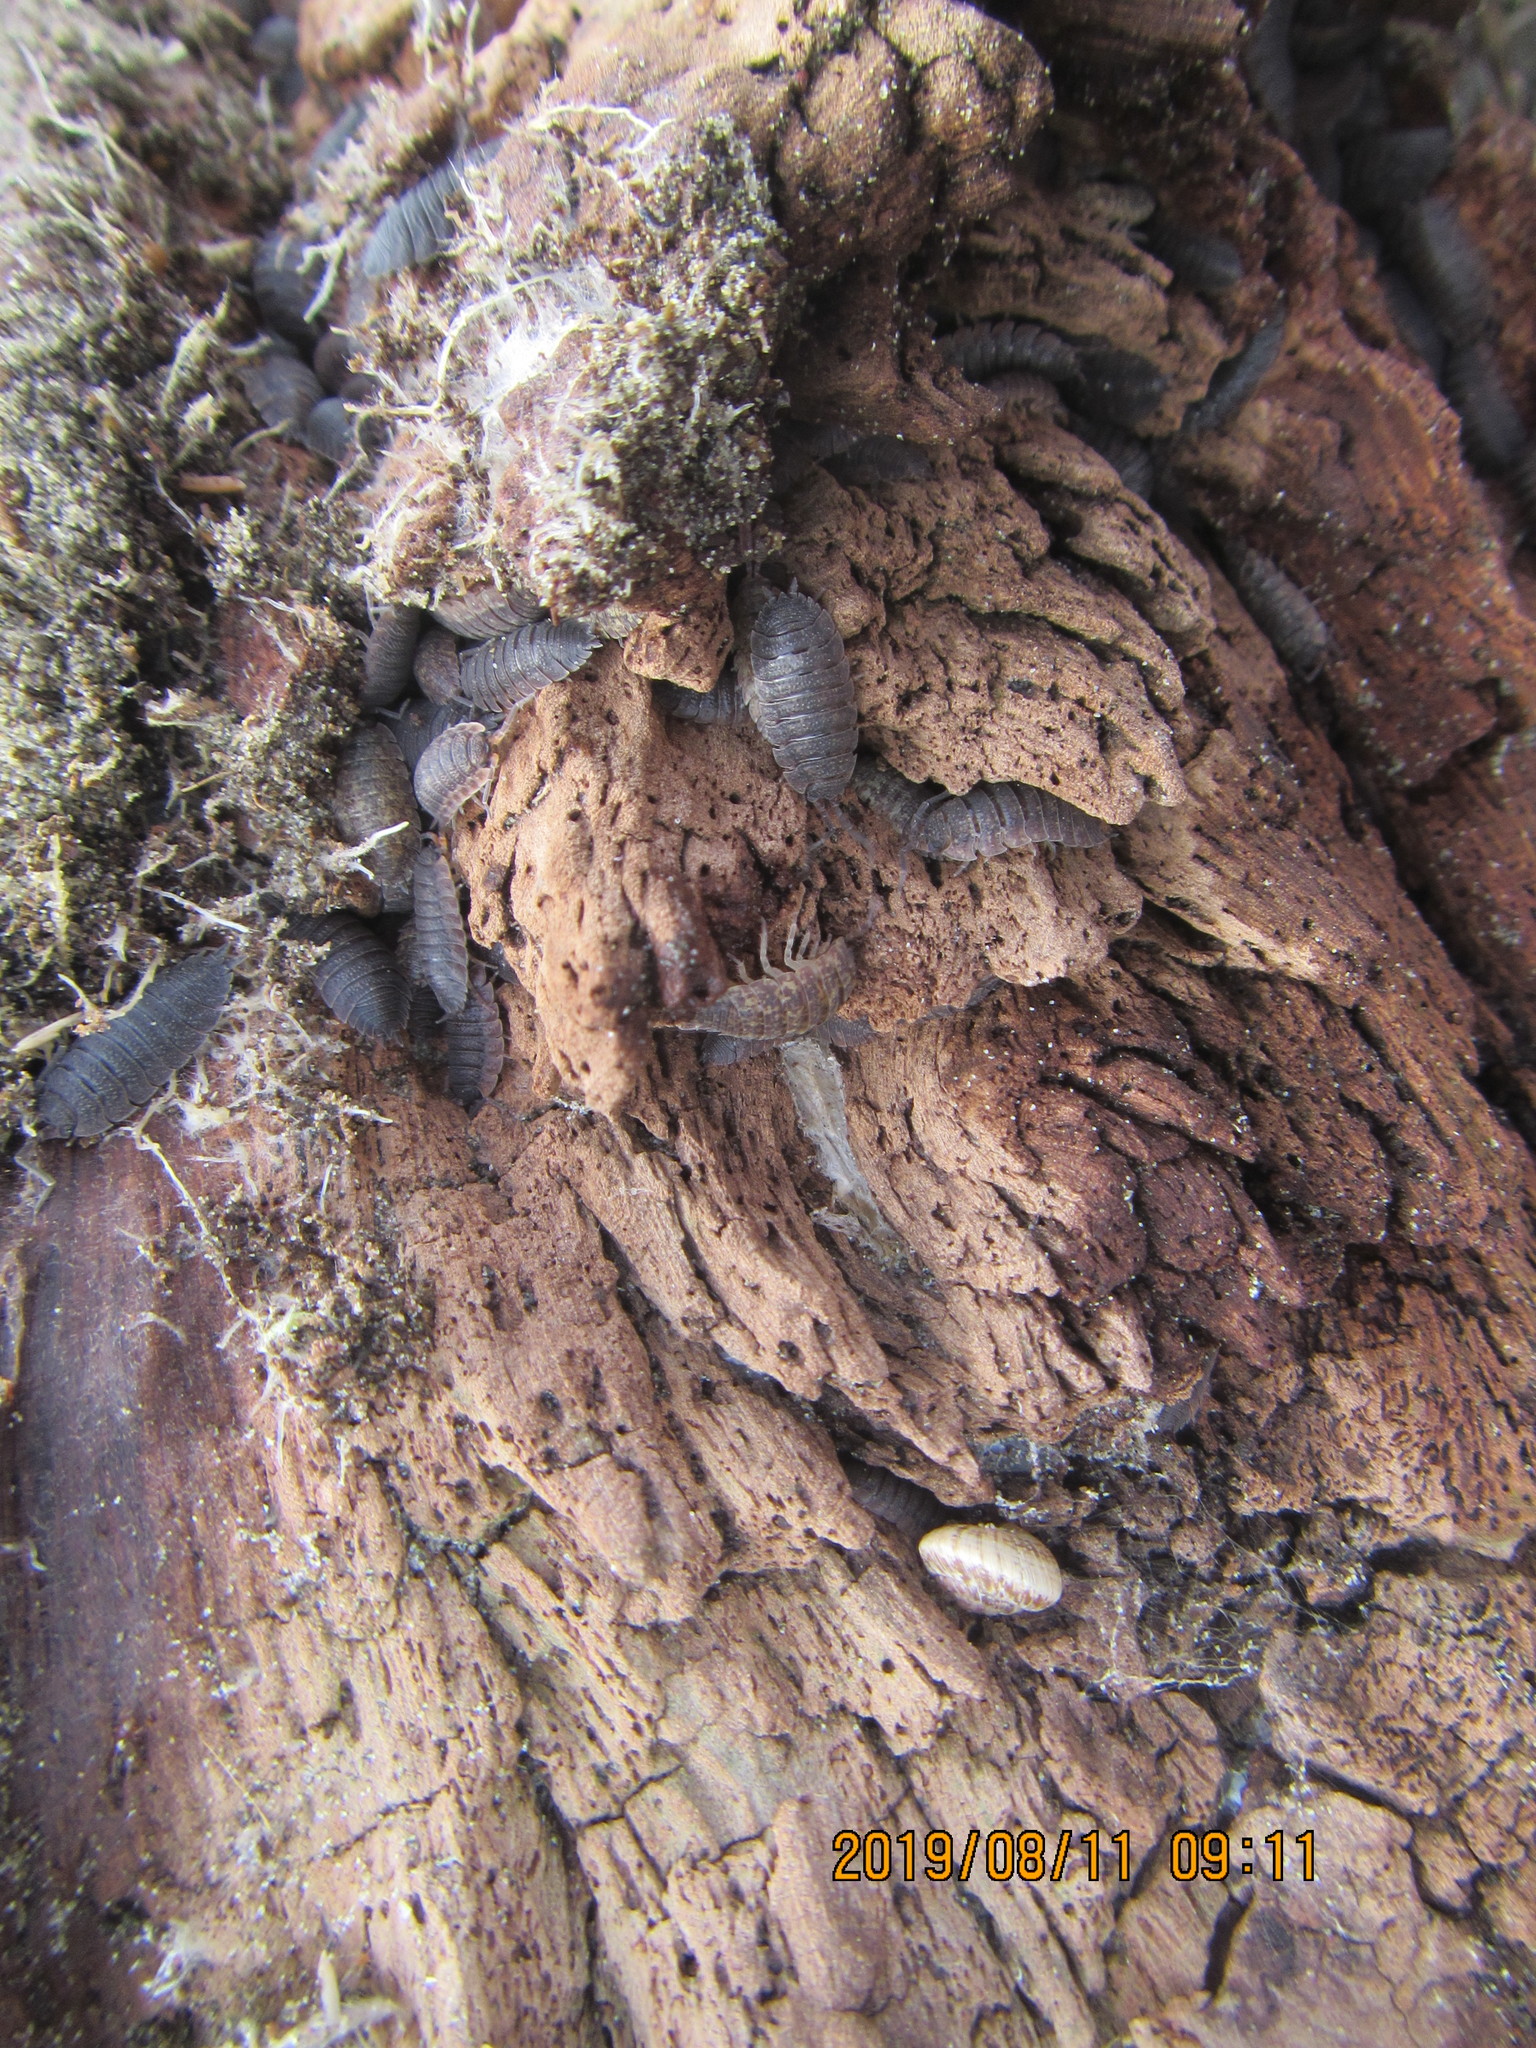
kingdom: Animalia
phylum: Arthropoda
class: Malacostraca
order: Isopoda
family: Porcellionidae
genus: Porcellio
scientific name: Porcellio scaber
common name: Common rough woodlouse
